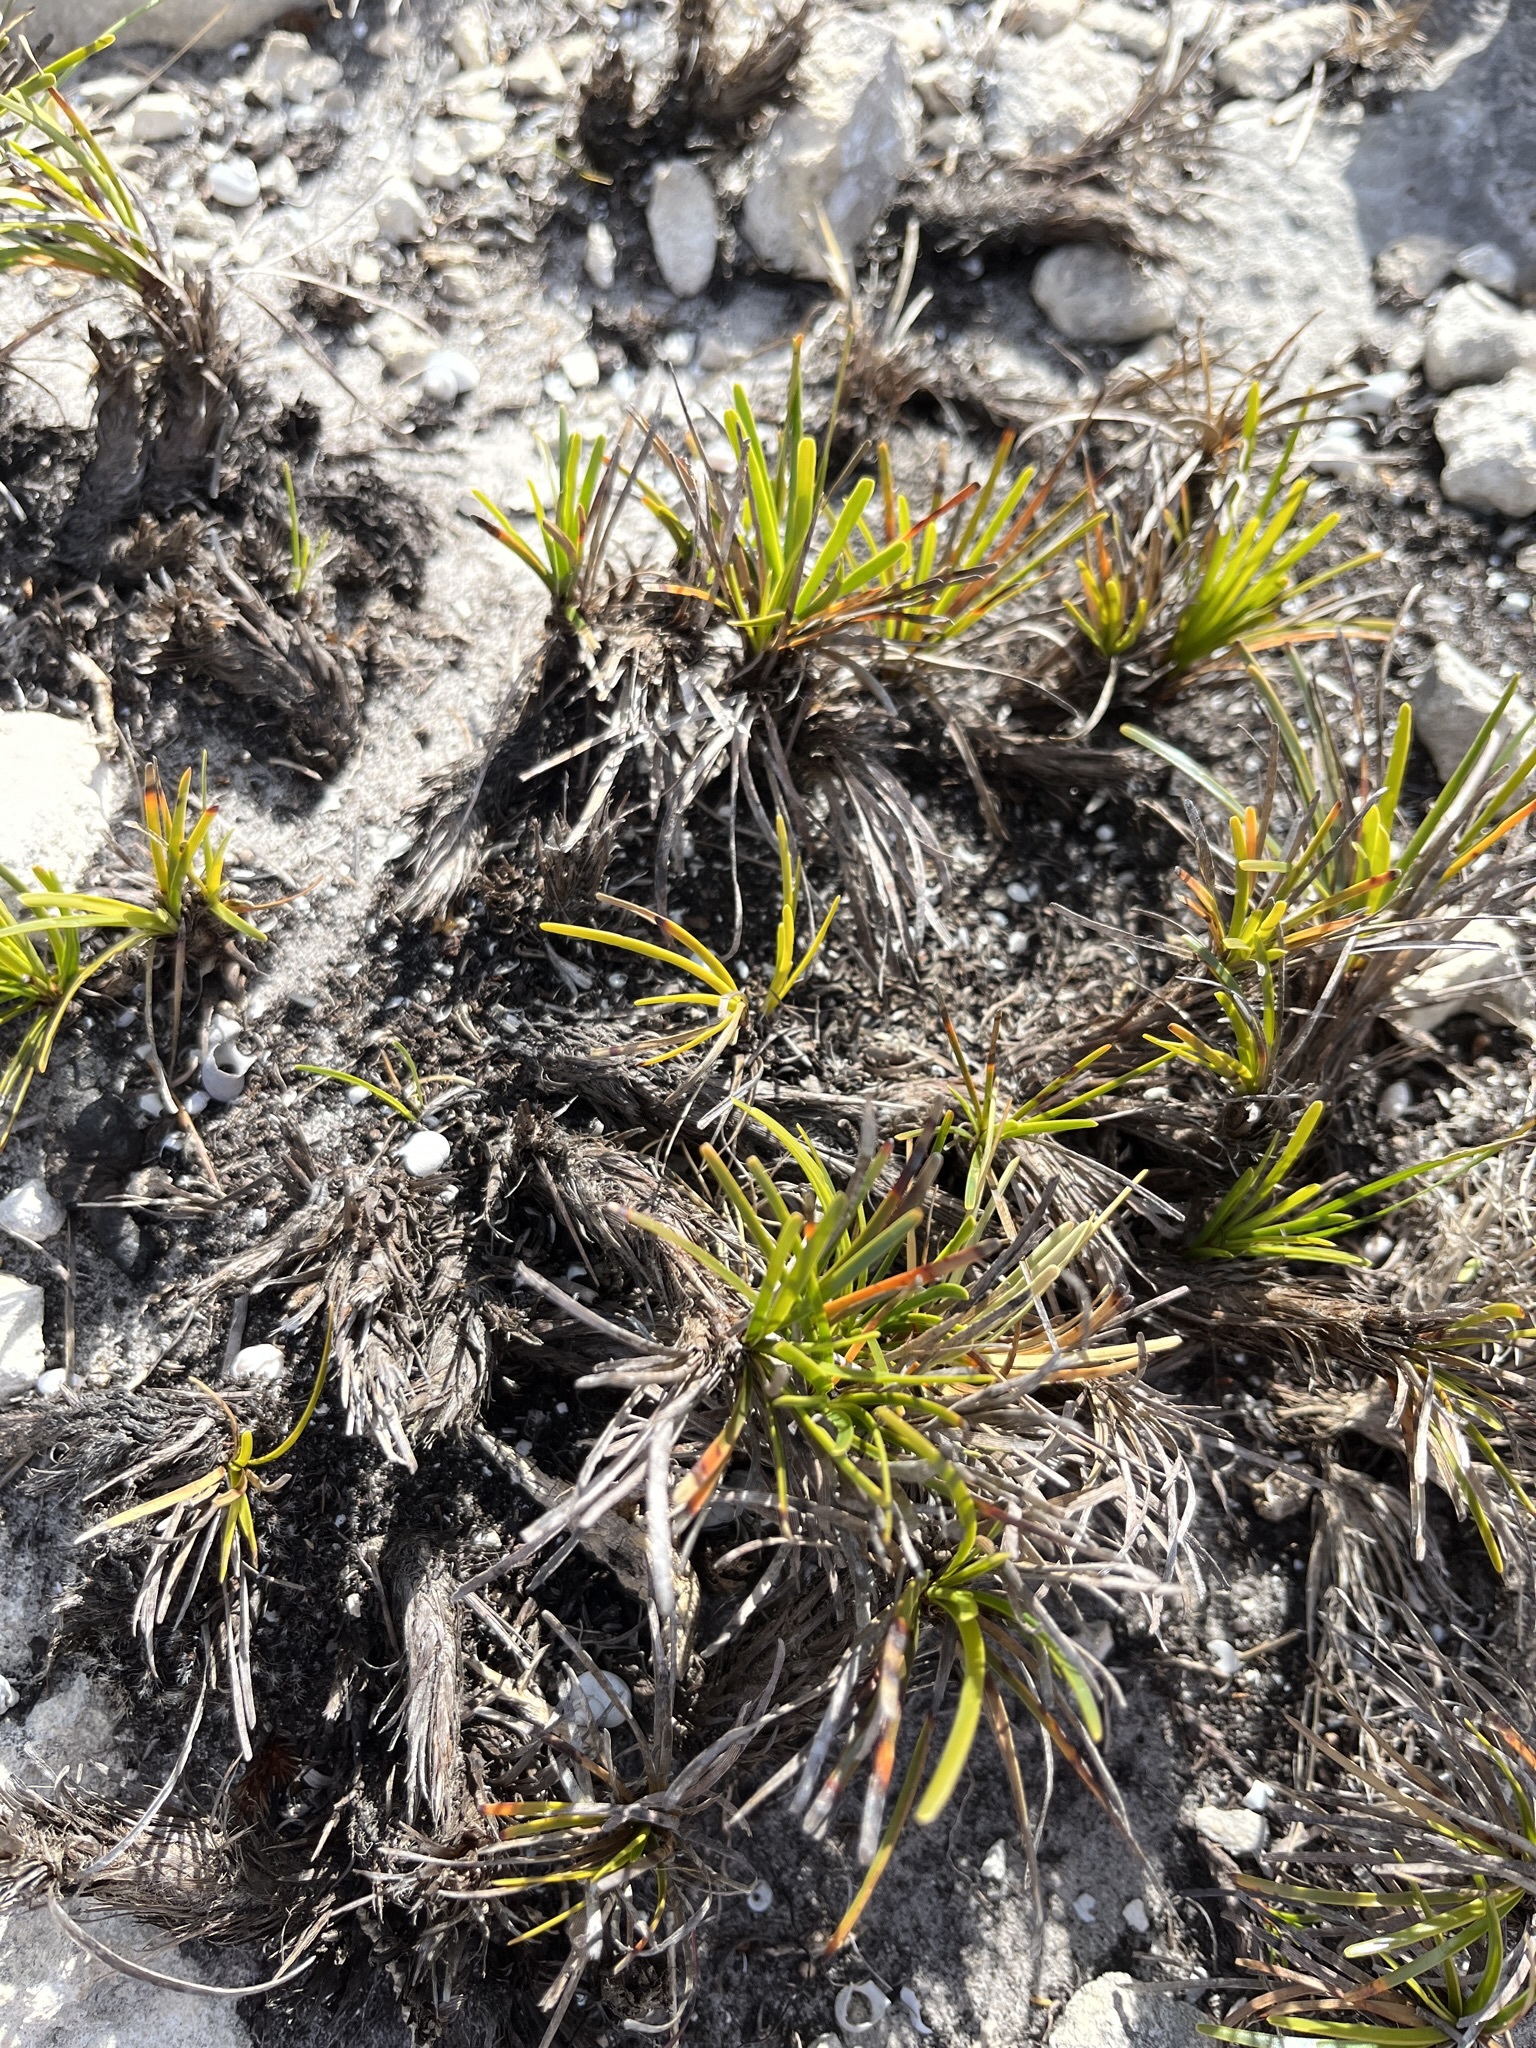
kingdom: Plantae
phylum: Tracheophyta
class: Liliopsida
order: Poales
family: Cyperaceae
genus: Ficinia
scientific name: Ficinia praemorsa
